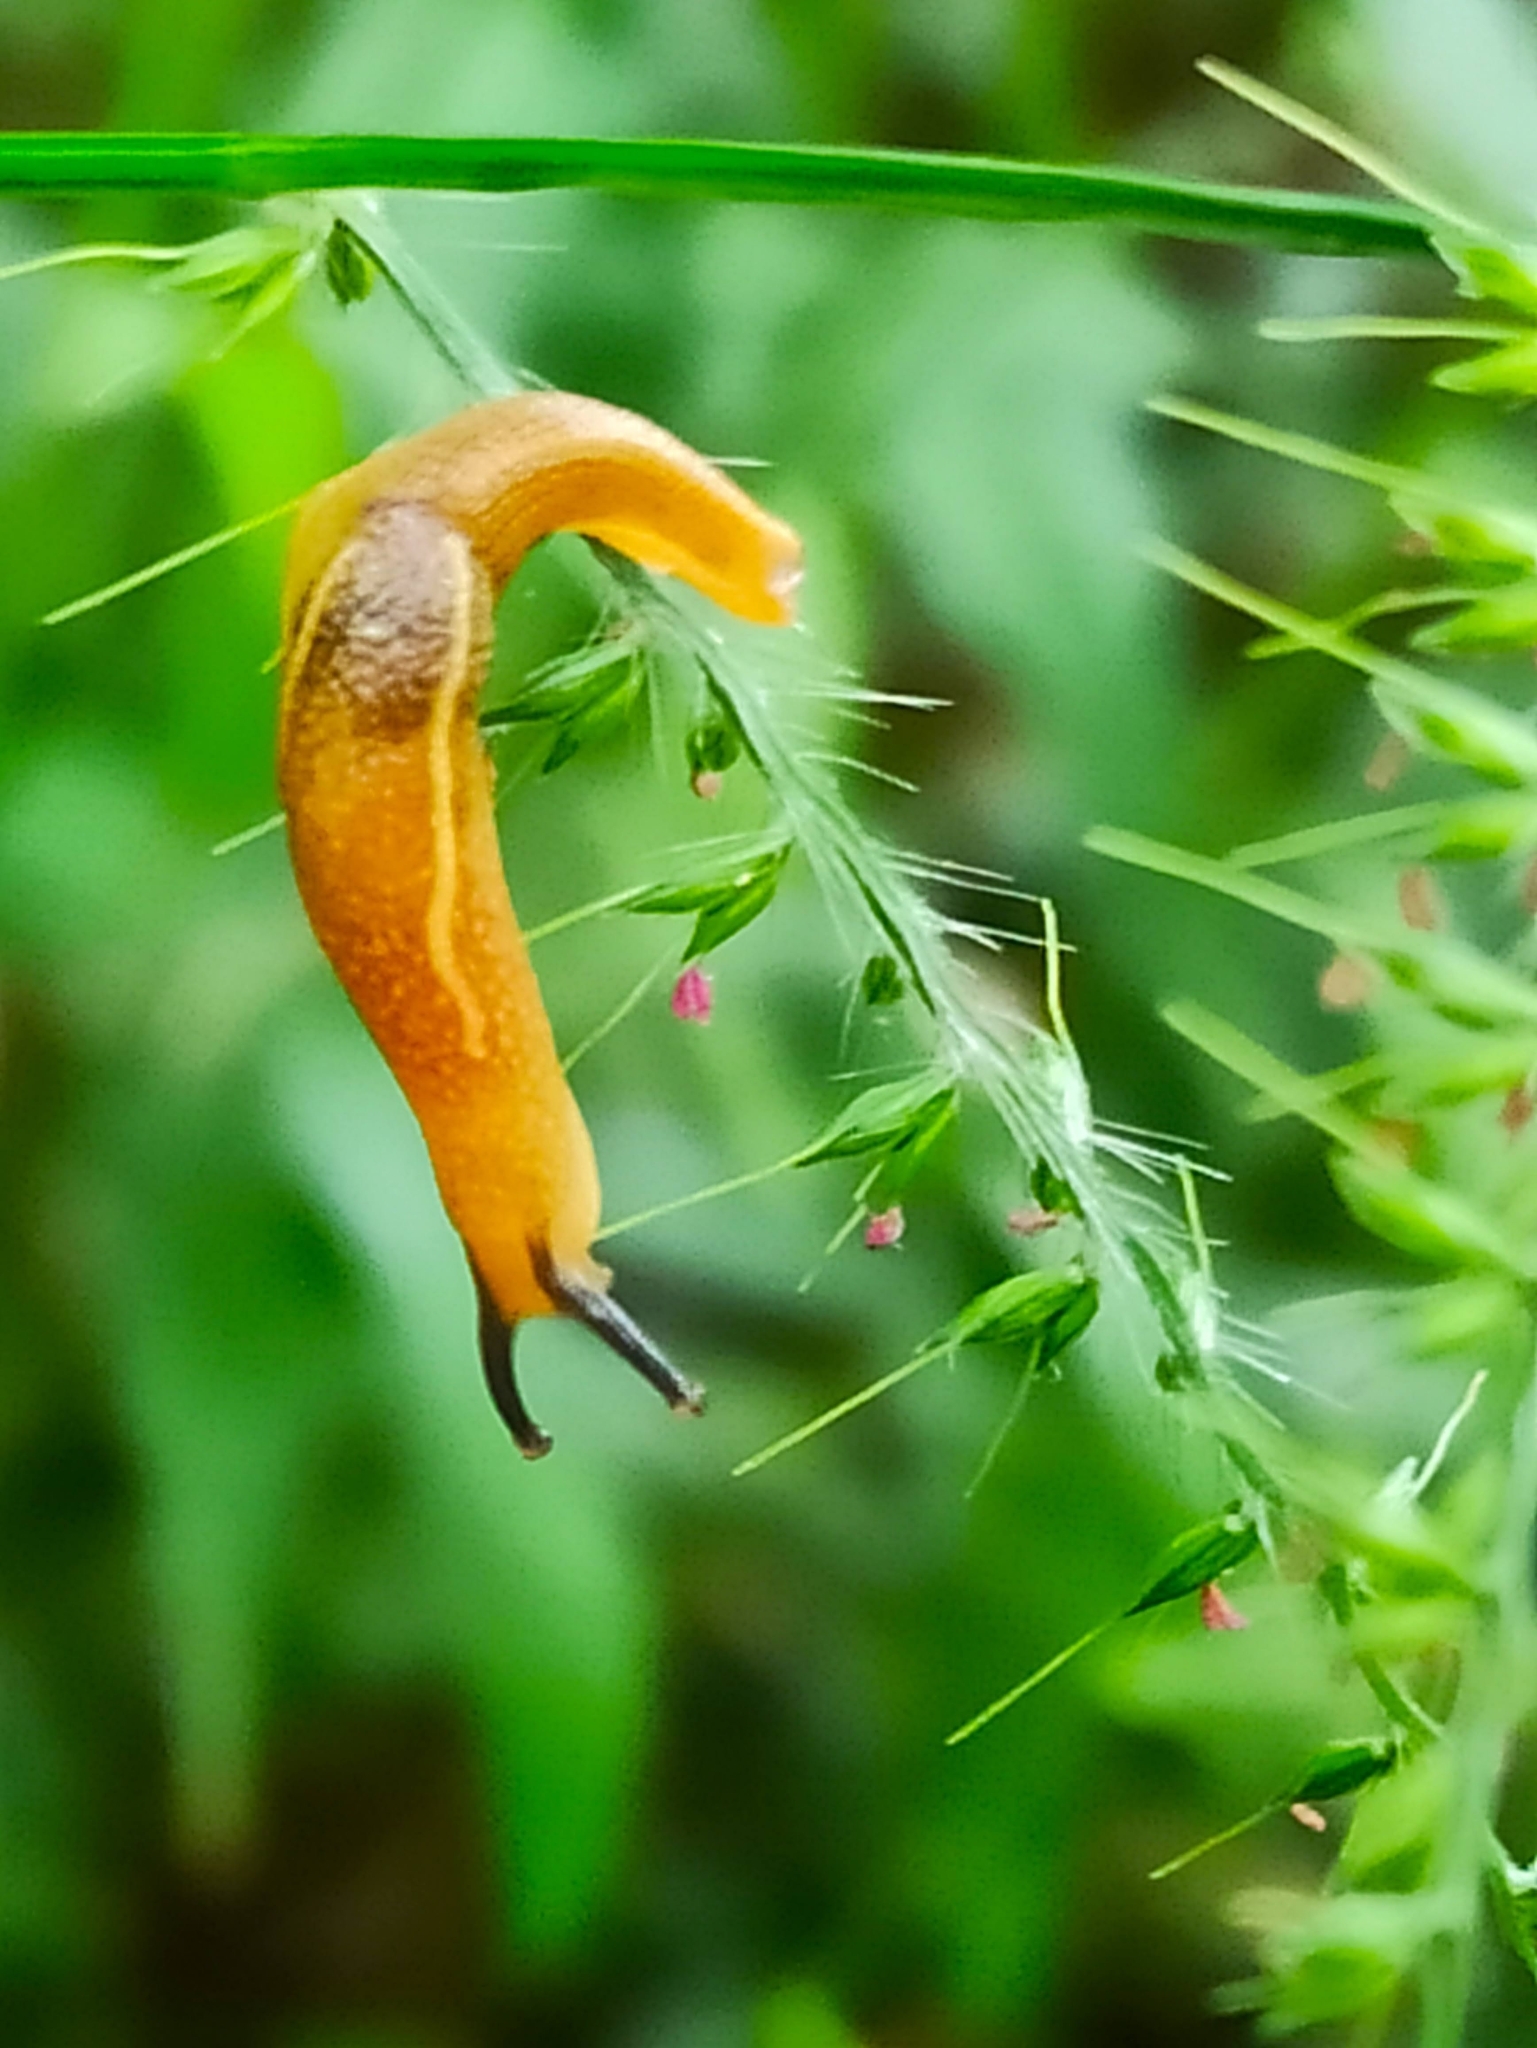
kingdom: Animalia
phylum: Mollusca
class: Gastropoda
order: Stylommatophora
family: Ariophantidae
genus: Mariaella
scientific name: Mariaella dussumieri
